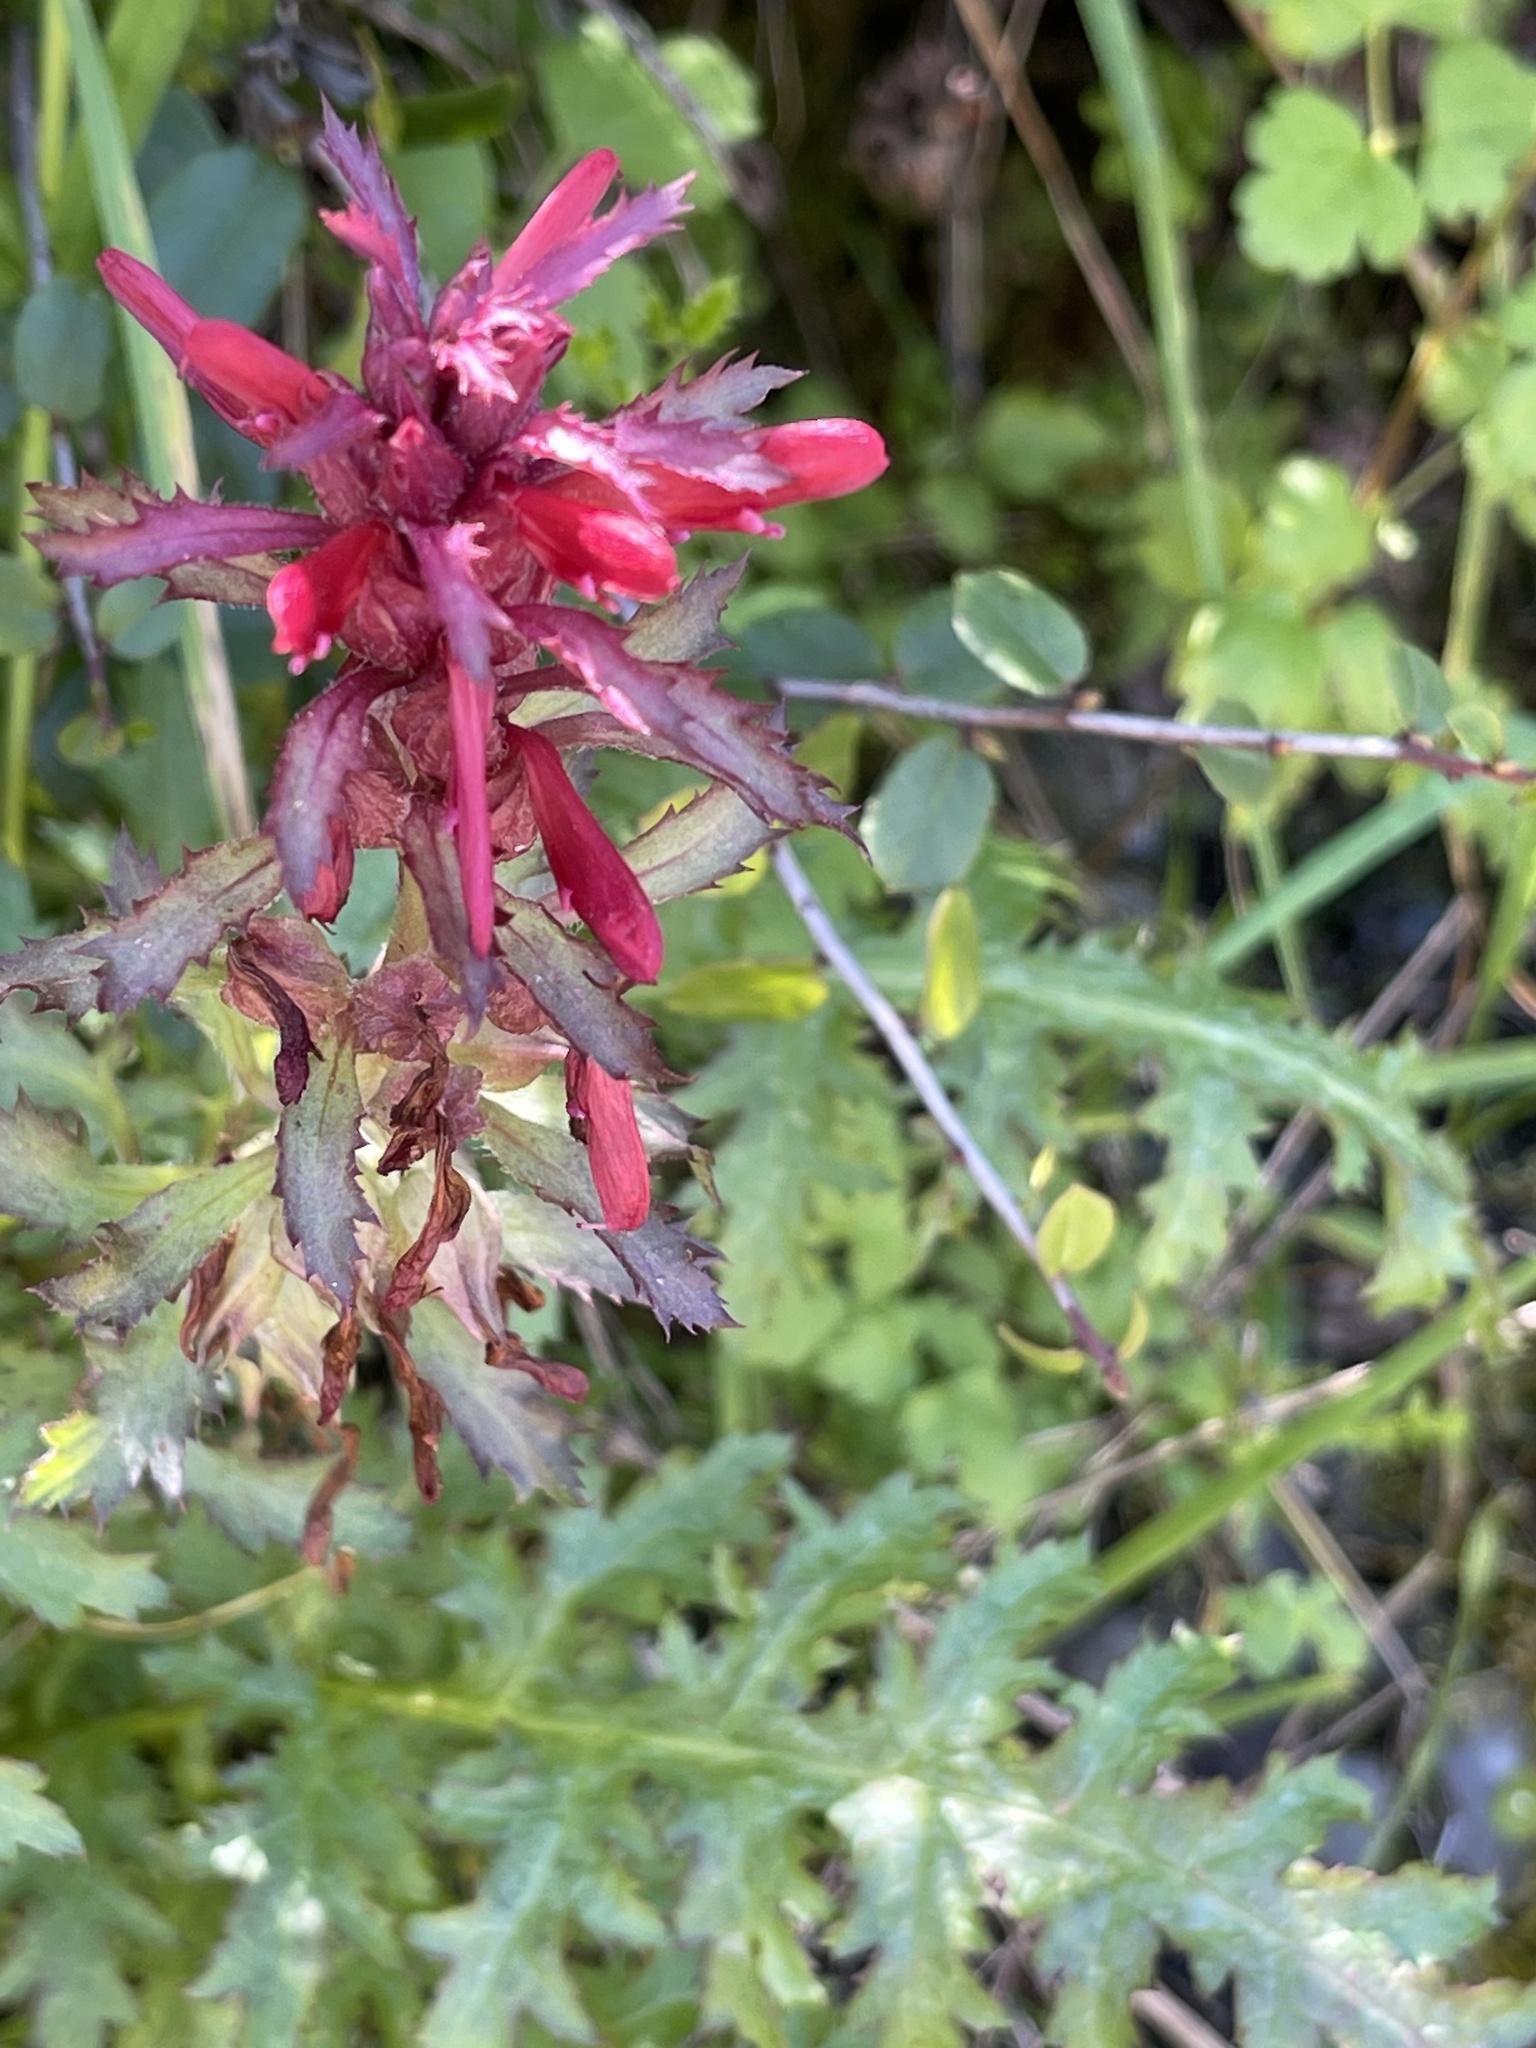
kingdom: Plantae
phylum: Tracheophyta
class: Magnoliopsida
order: Lamiales
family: Orobanchaceae
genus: Pedicularis
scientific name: Pedicularis densiflora
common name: Indian warrior
